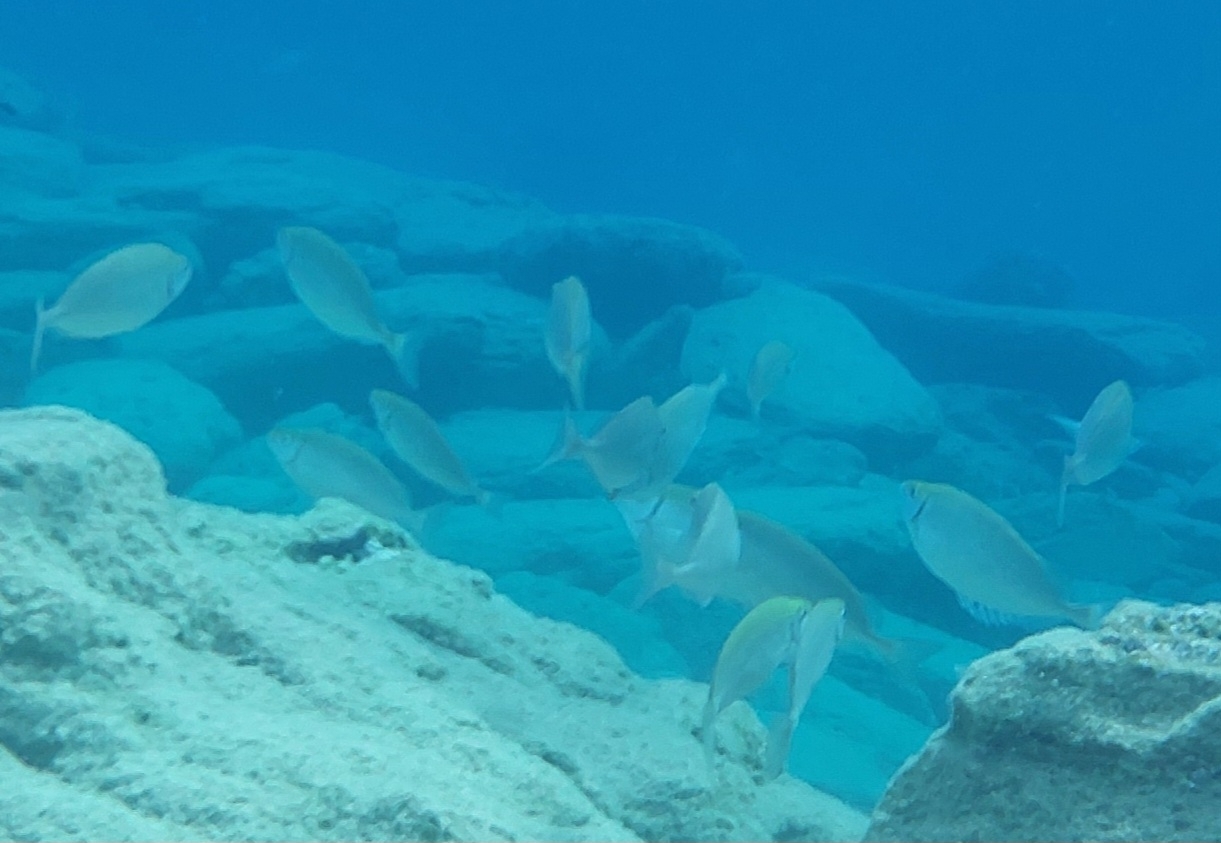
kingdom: Animalia
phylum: Chordata
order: Perciformes
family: Siganidae
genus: Siganus
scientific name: Siganus rivulatus
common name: Marbled spinefoot
